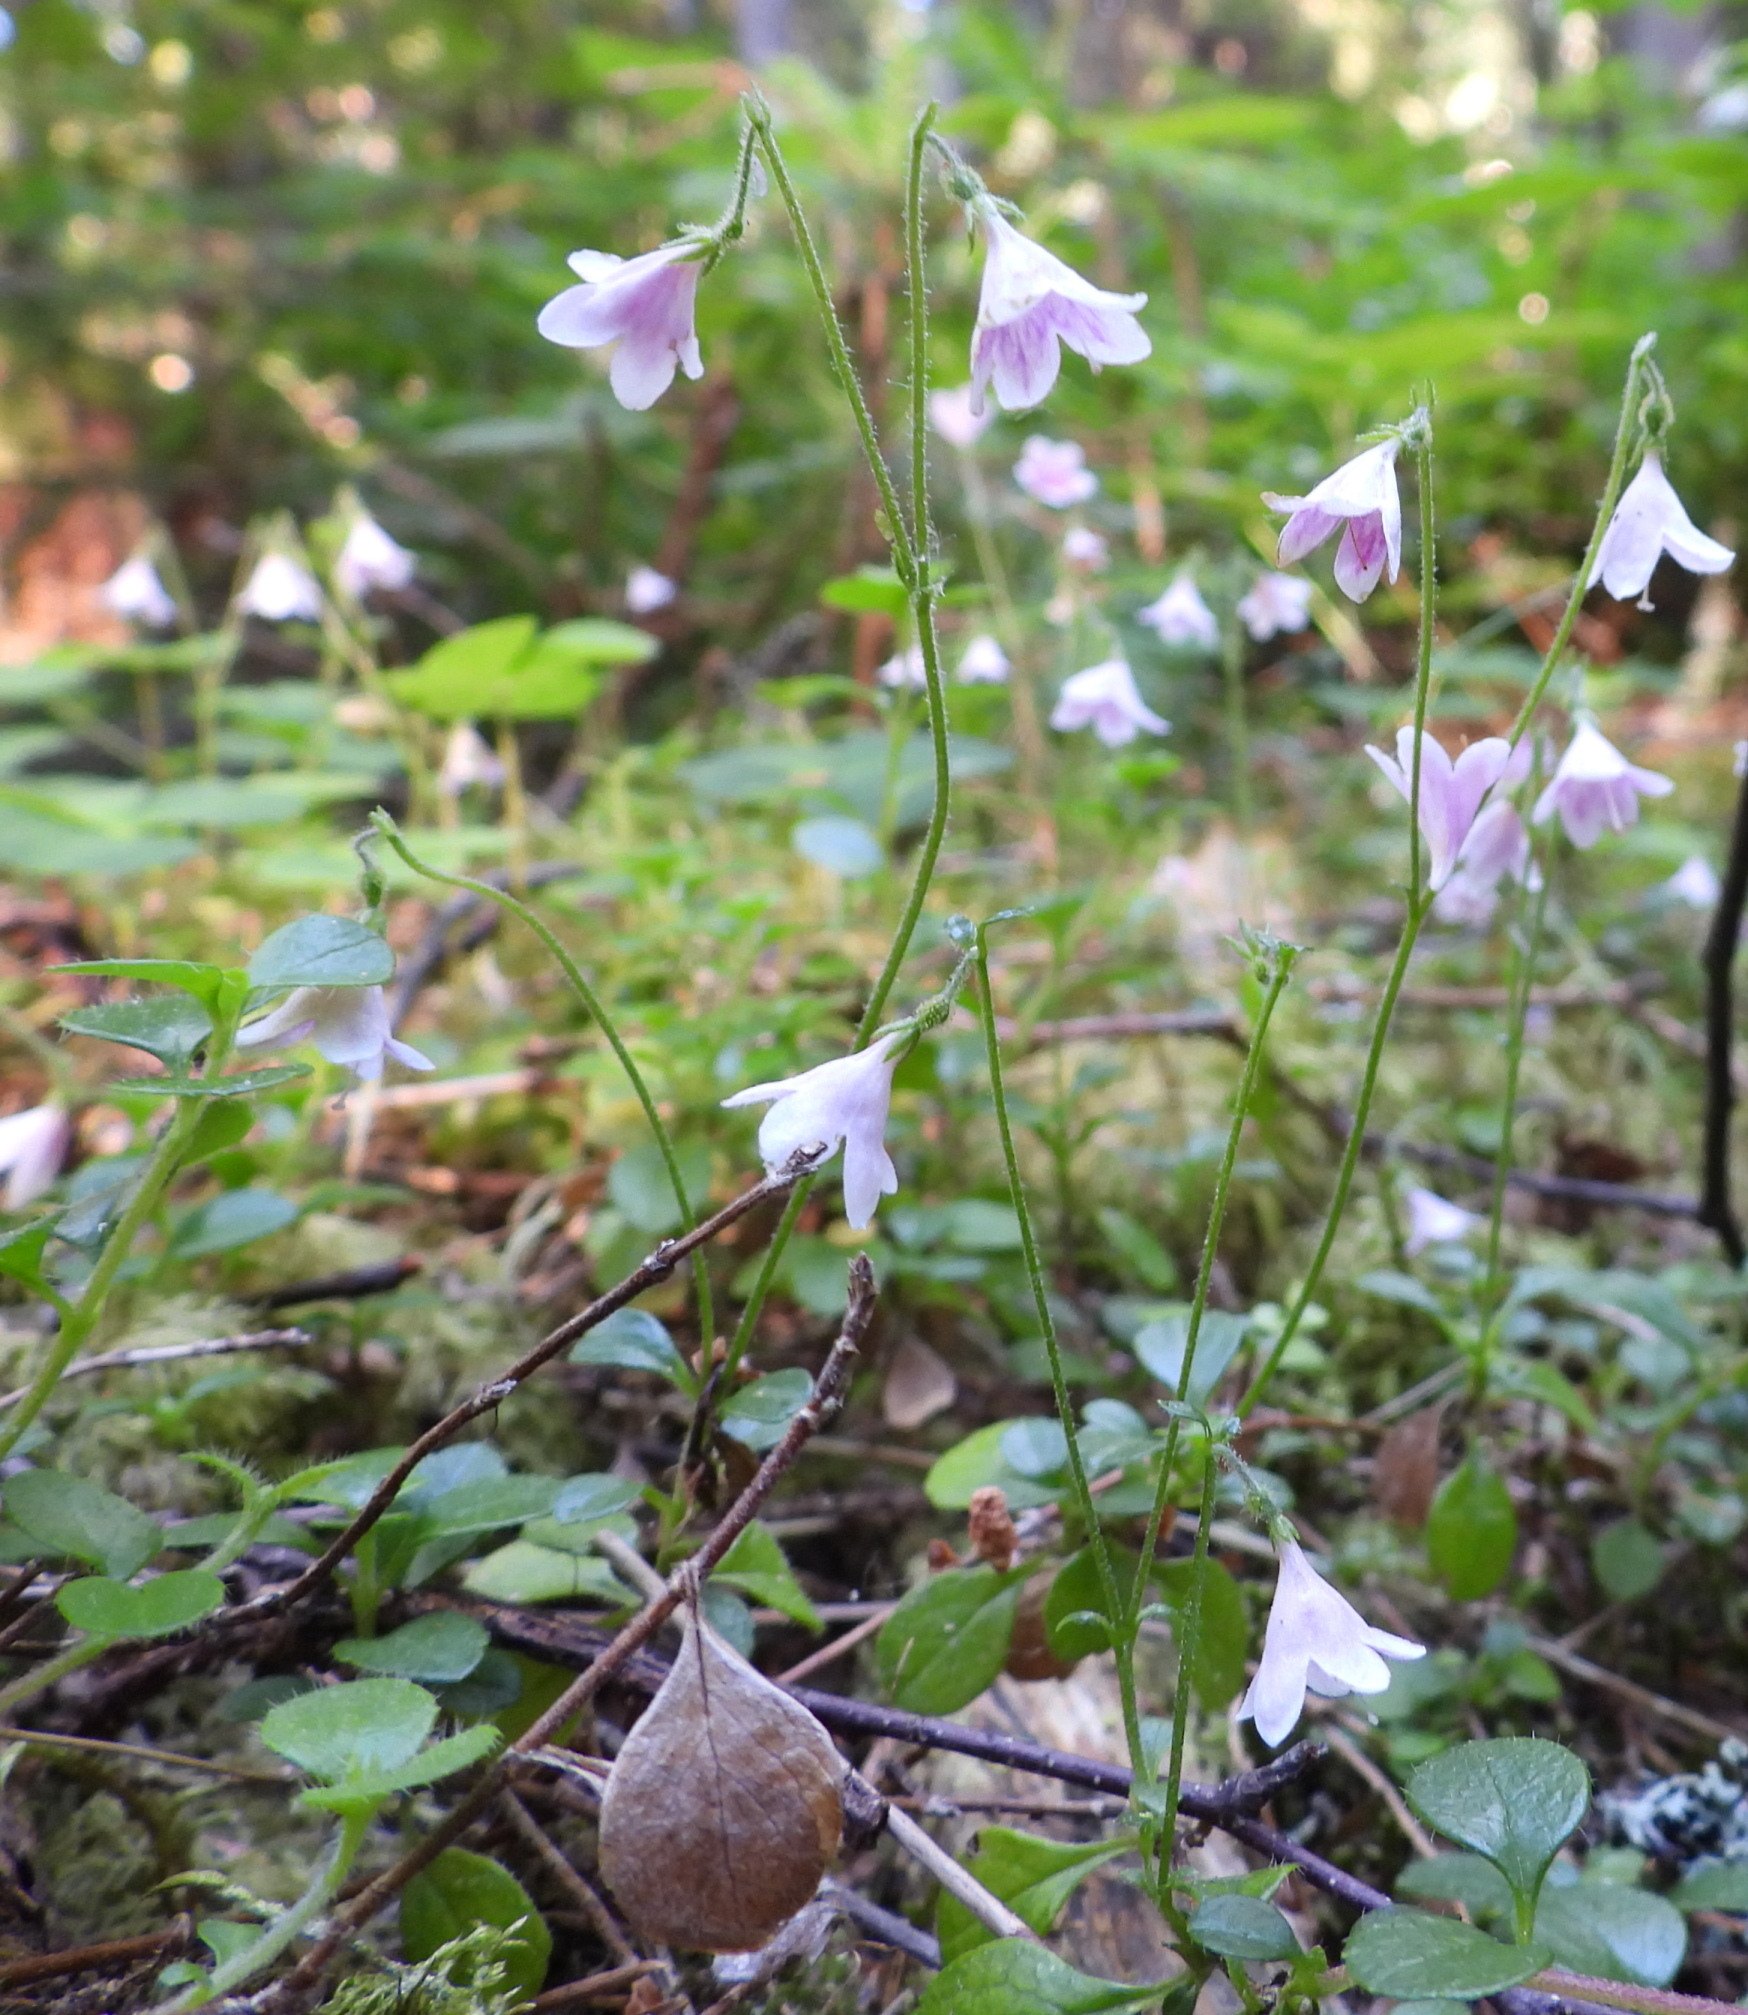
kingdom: Plantae
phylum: Tracheophyta
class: Magnoliopsida
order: Dipsacales
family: Caprifoliaceae
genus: Linnaea
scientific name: Linnaea borealis
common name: Twinflower
